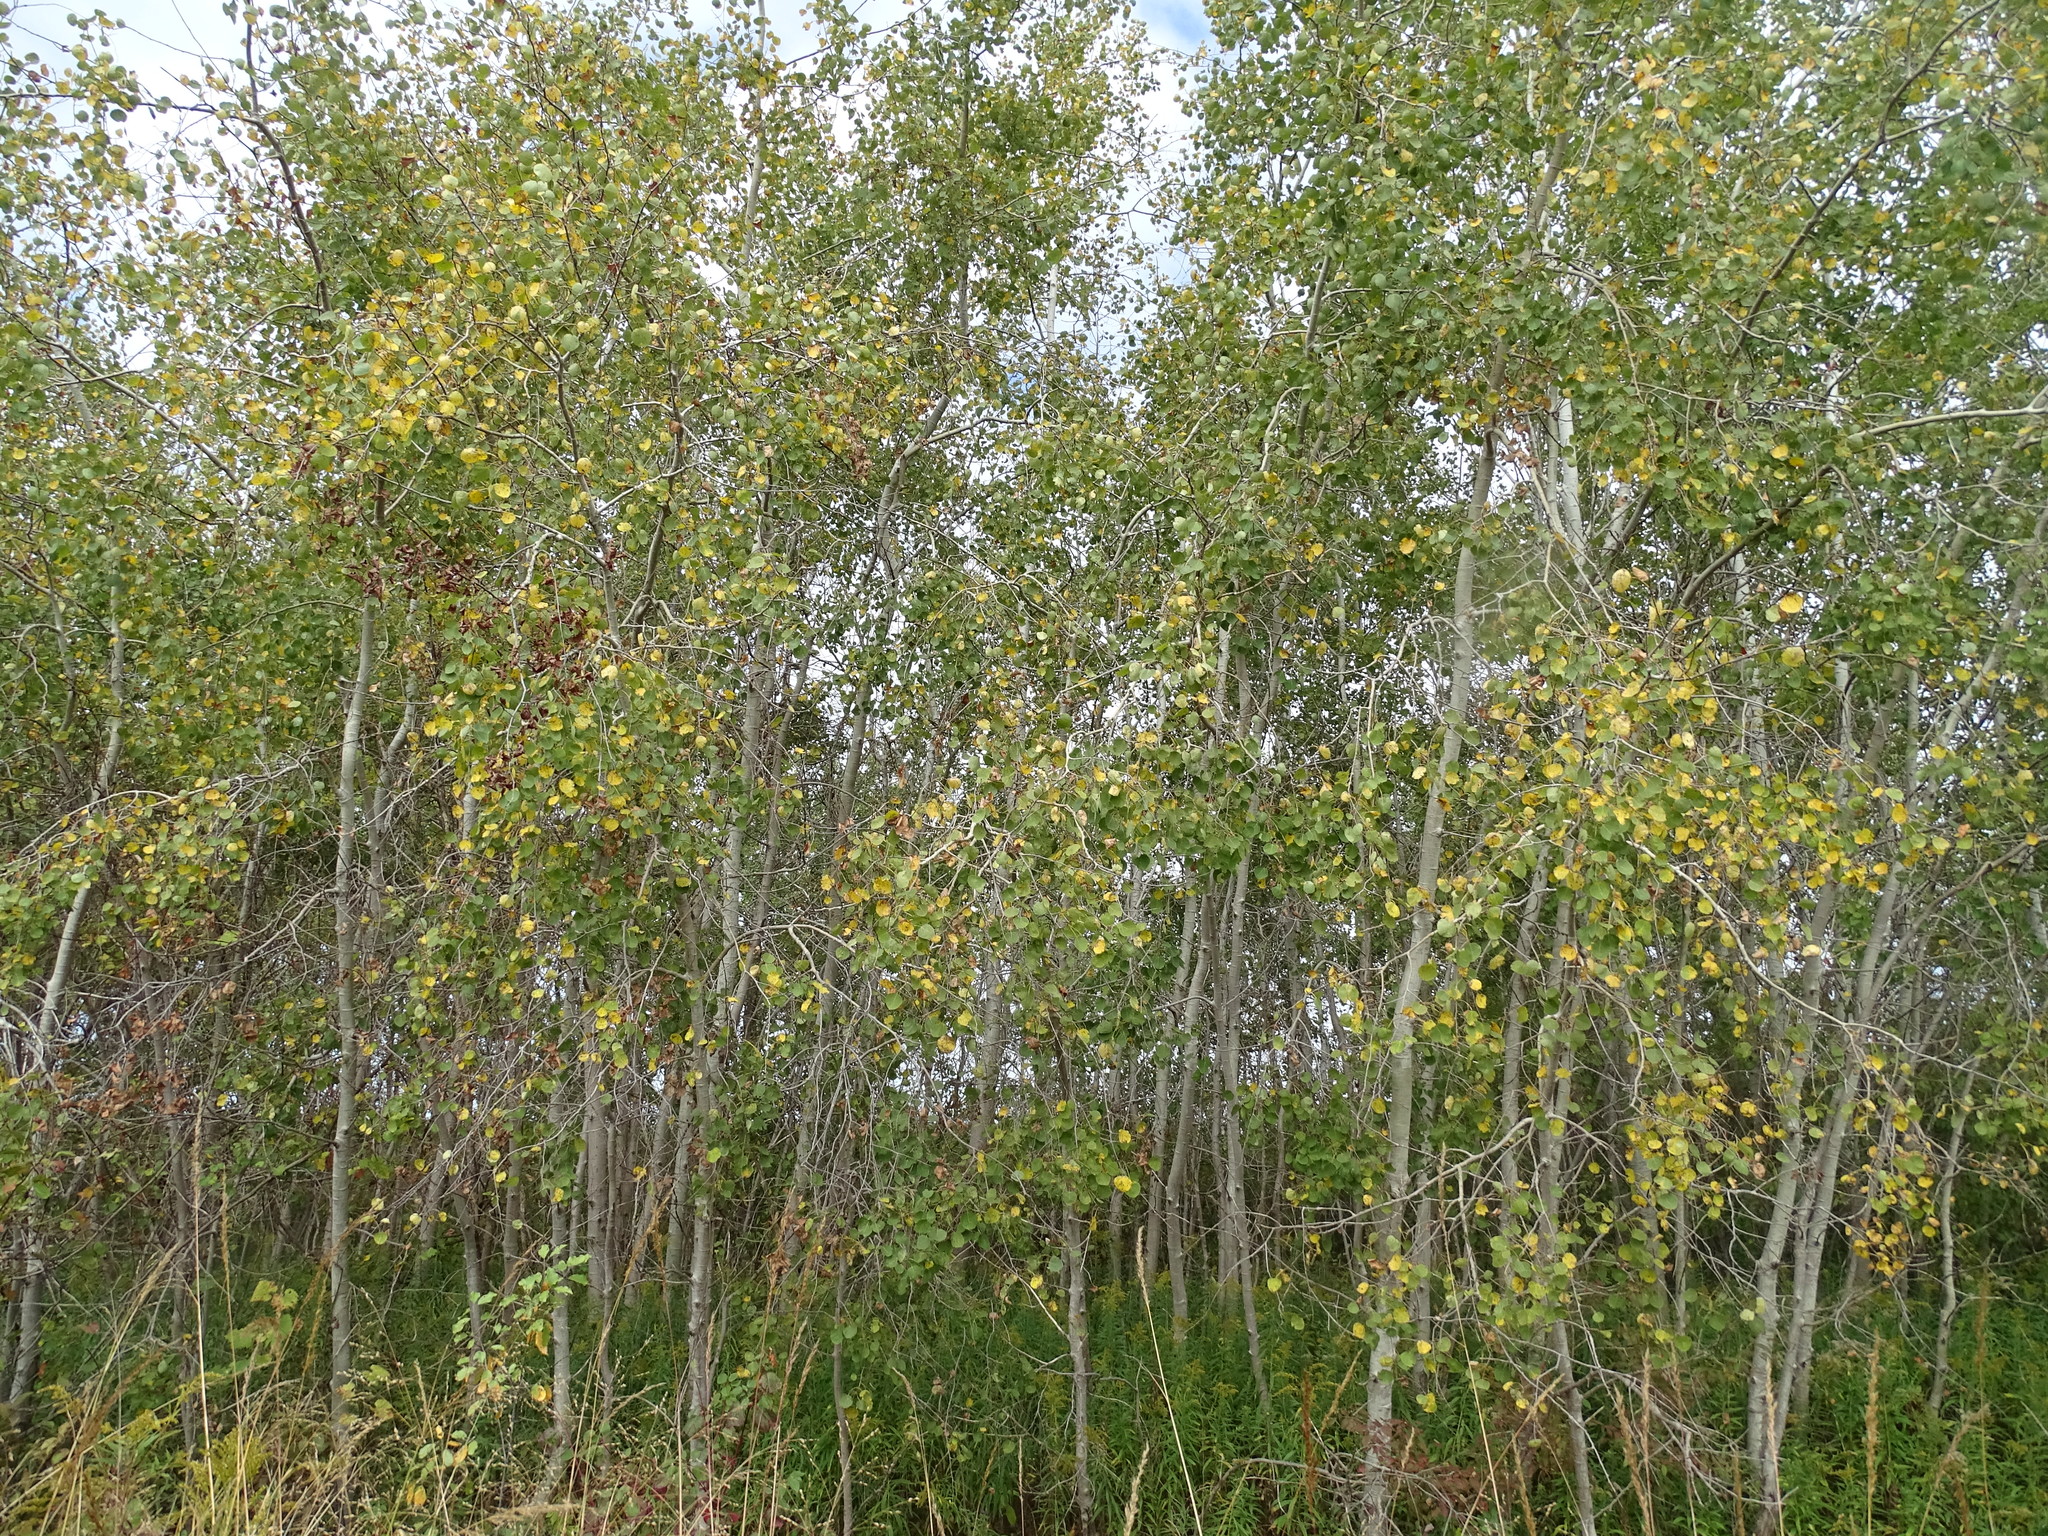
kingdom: Plantae
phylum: Tracheophyta
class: Magnoliopsida
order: Malpighiales
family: Salicaceae
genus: Populus
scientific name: Populus tremuloides
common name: Quaking aspen
